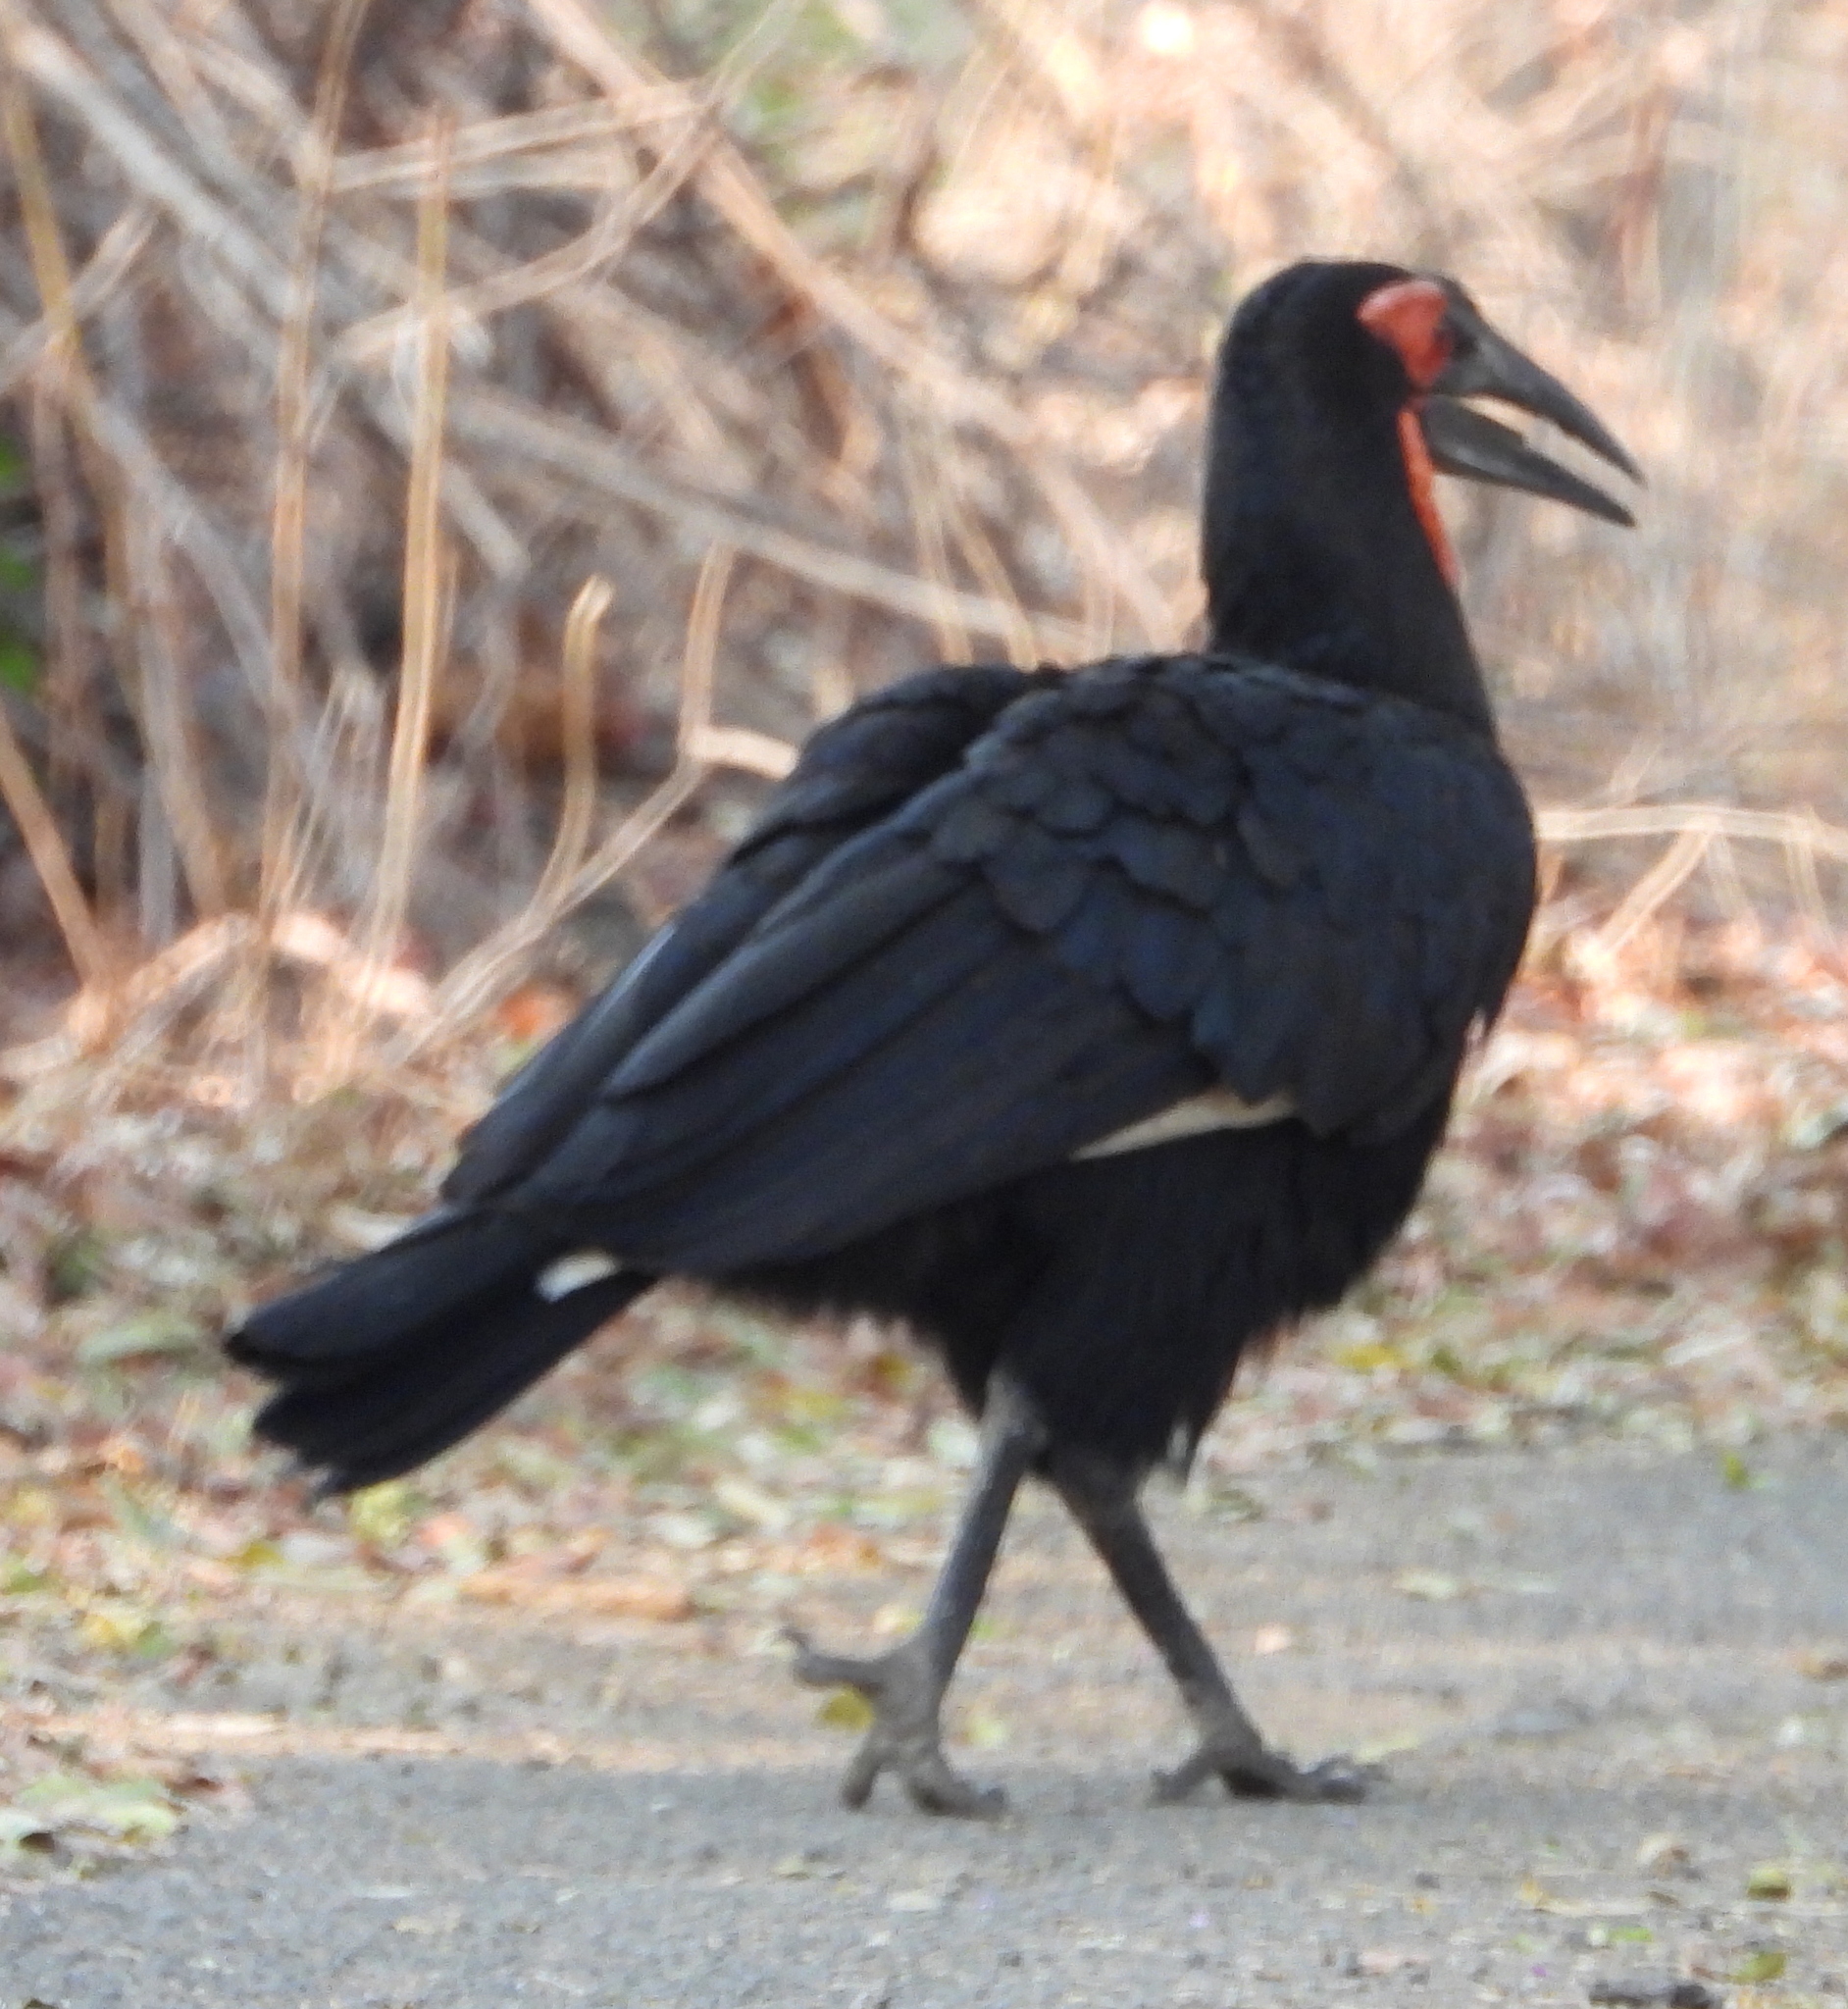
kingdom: Animalia
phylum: Chordata
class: Aves
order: Bucerotiformes
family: Bucorvidae
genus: Bucorvus
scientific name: Bucorvus leadbeateri
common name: Southern ground-hornbill
